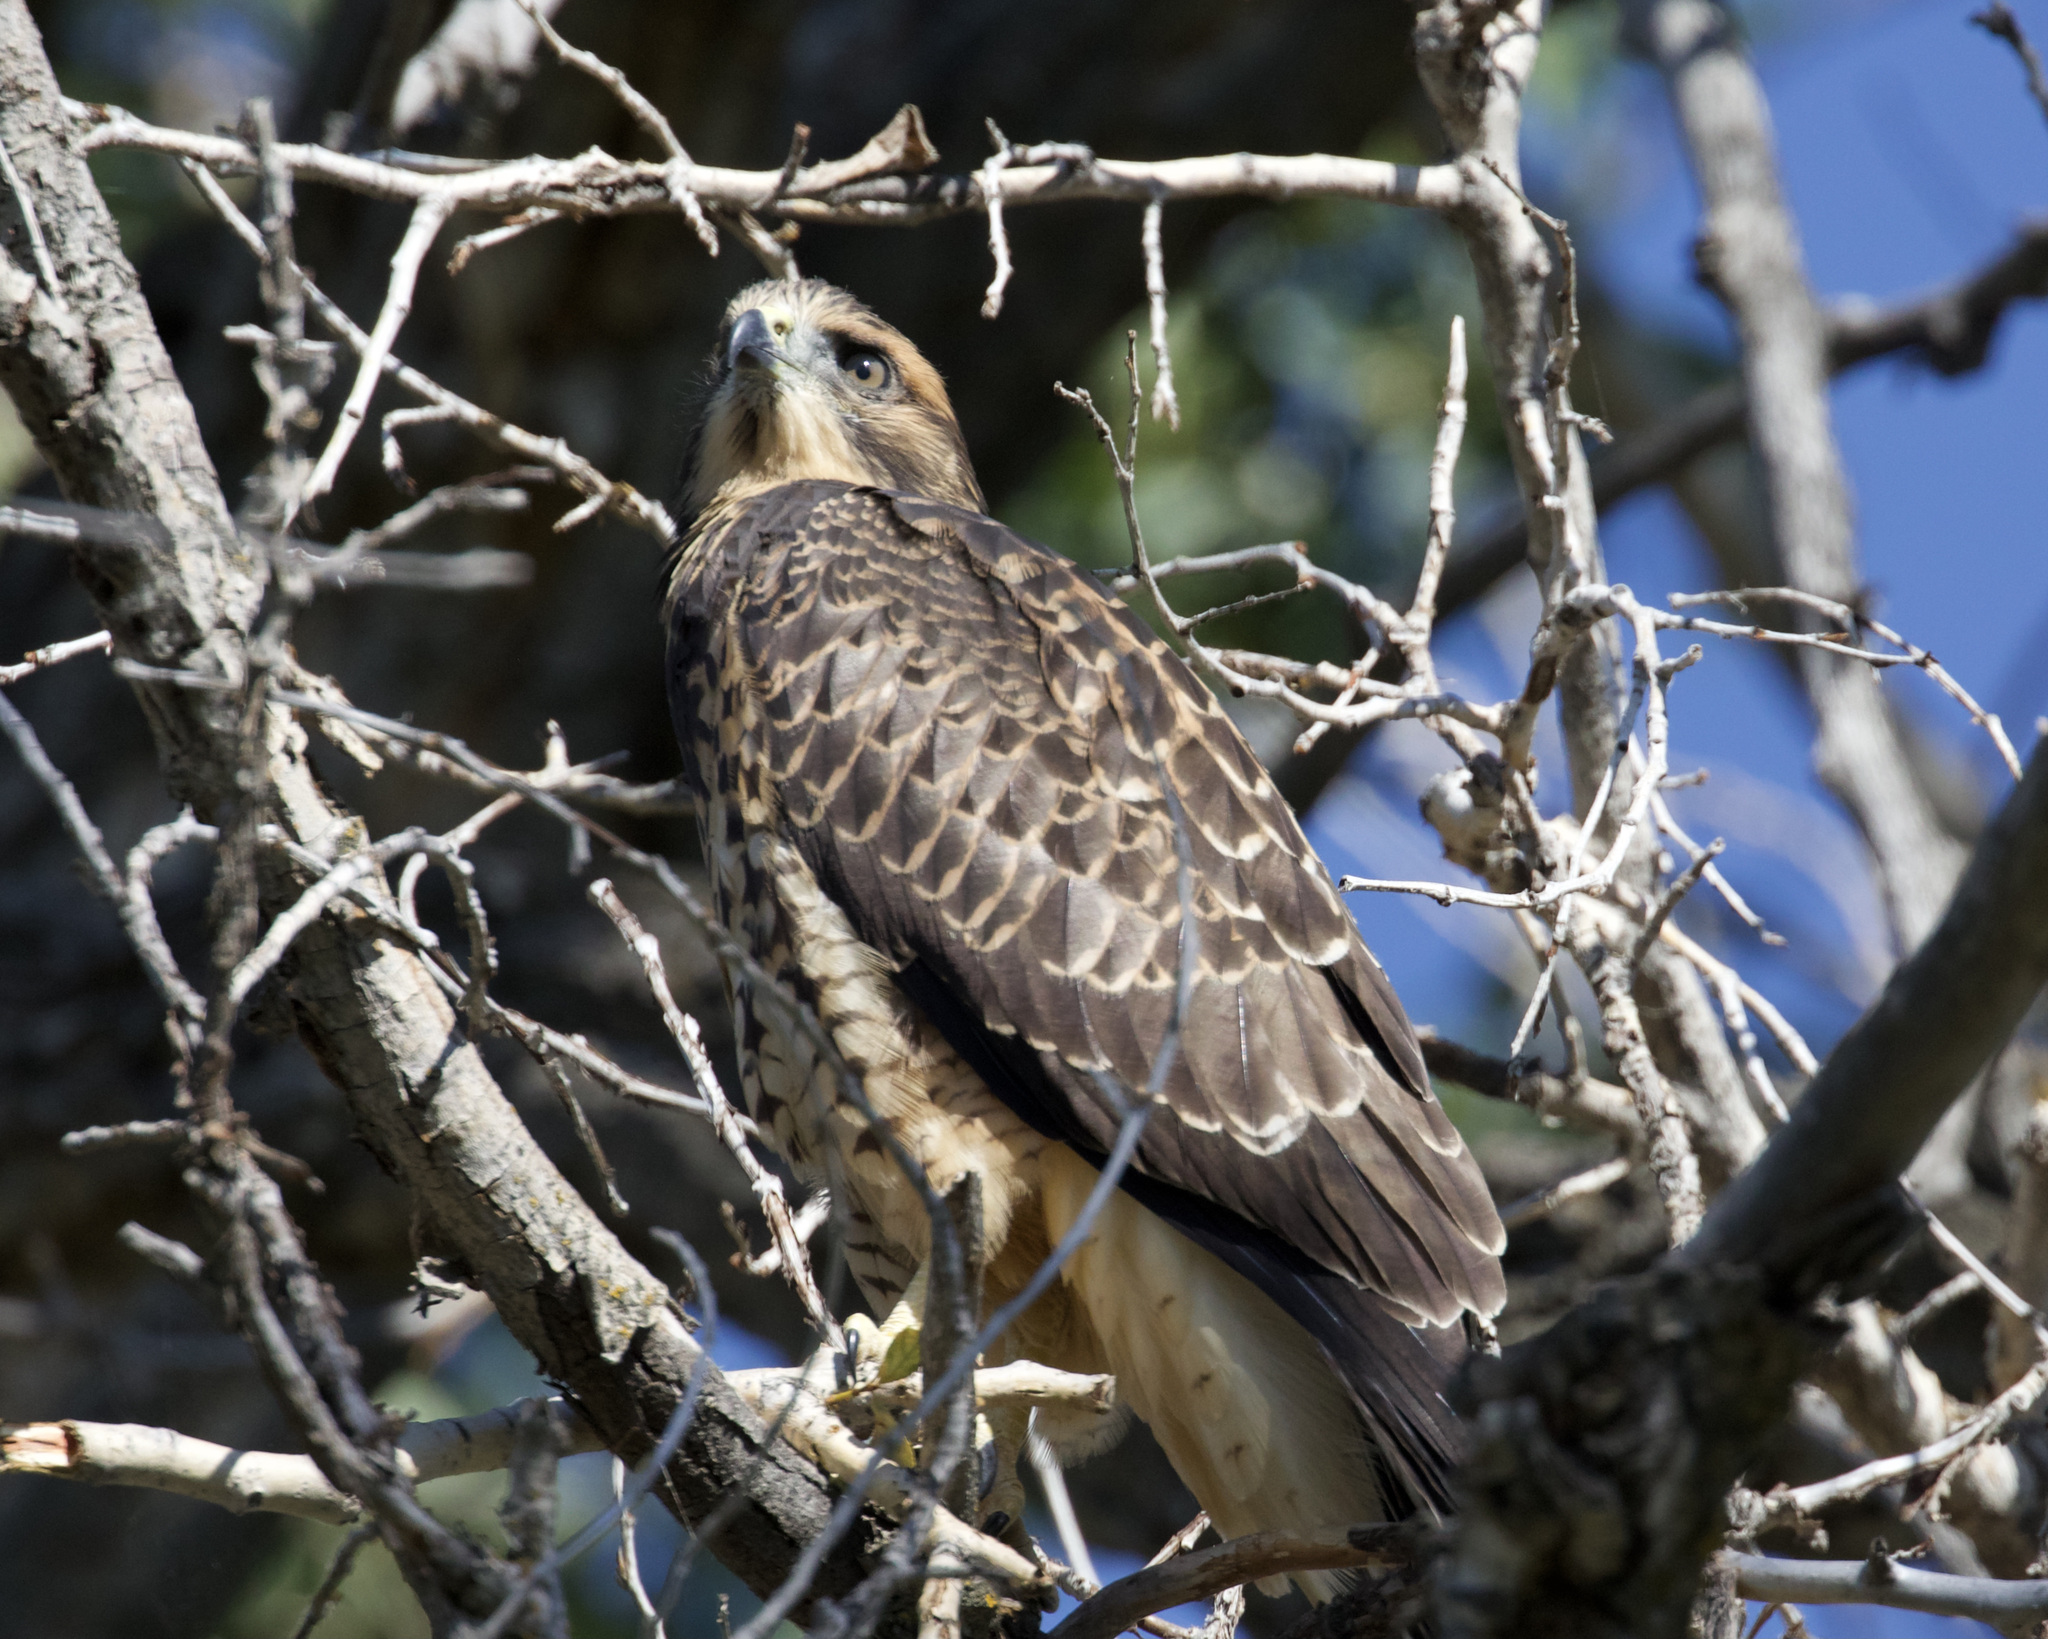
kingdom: Animalia
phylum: Chordata
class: Aves
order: Accipitriformes
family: Accipitridae
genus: Buteo
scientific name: Buteo swainsoni
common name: Swainson's hawk
